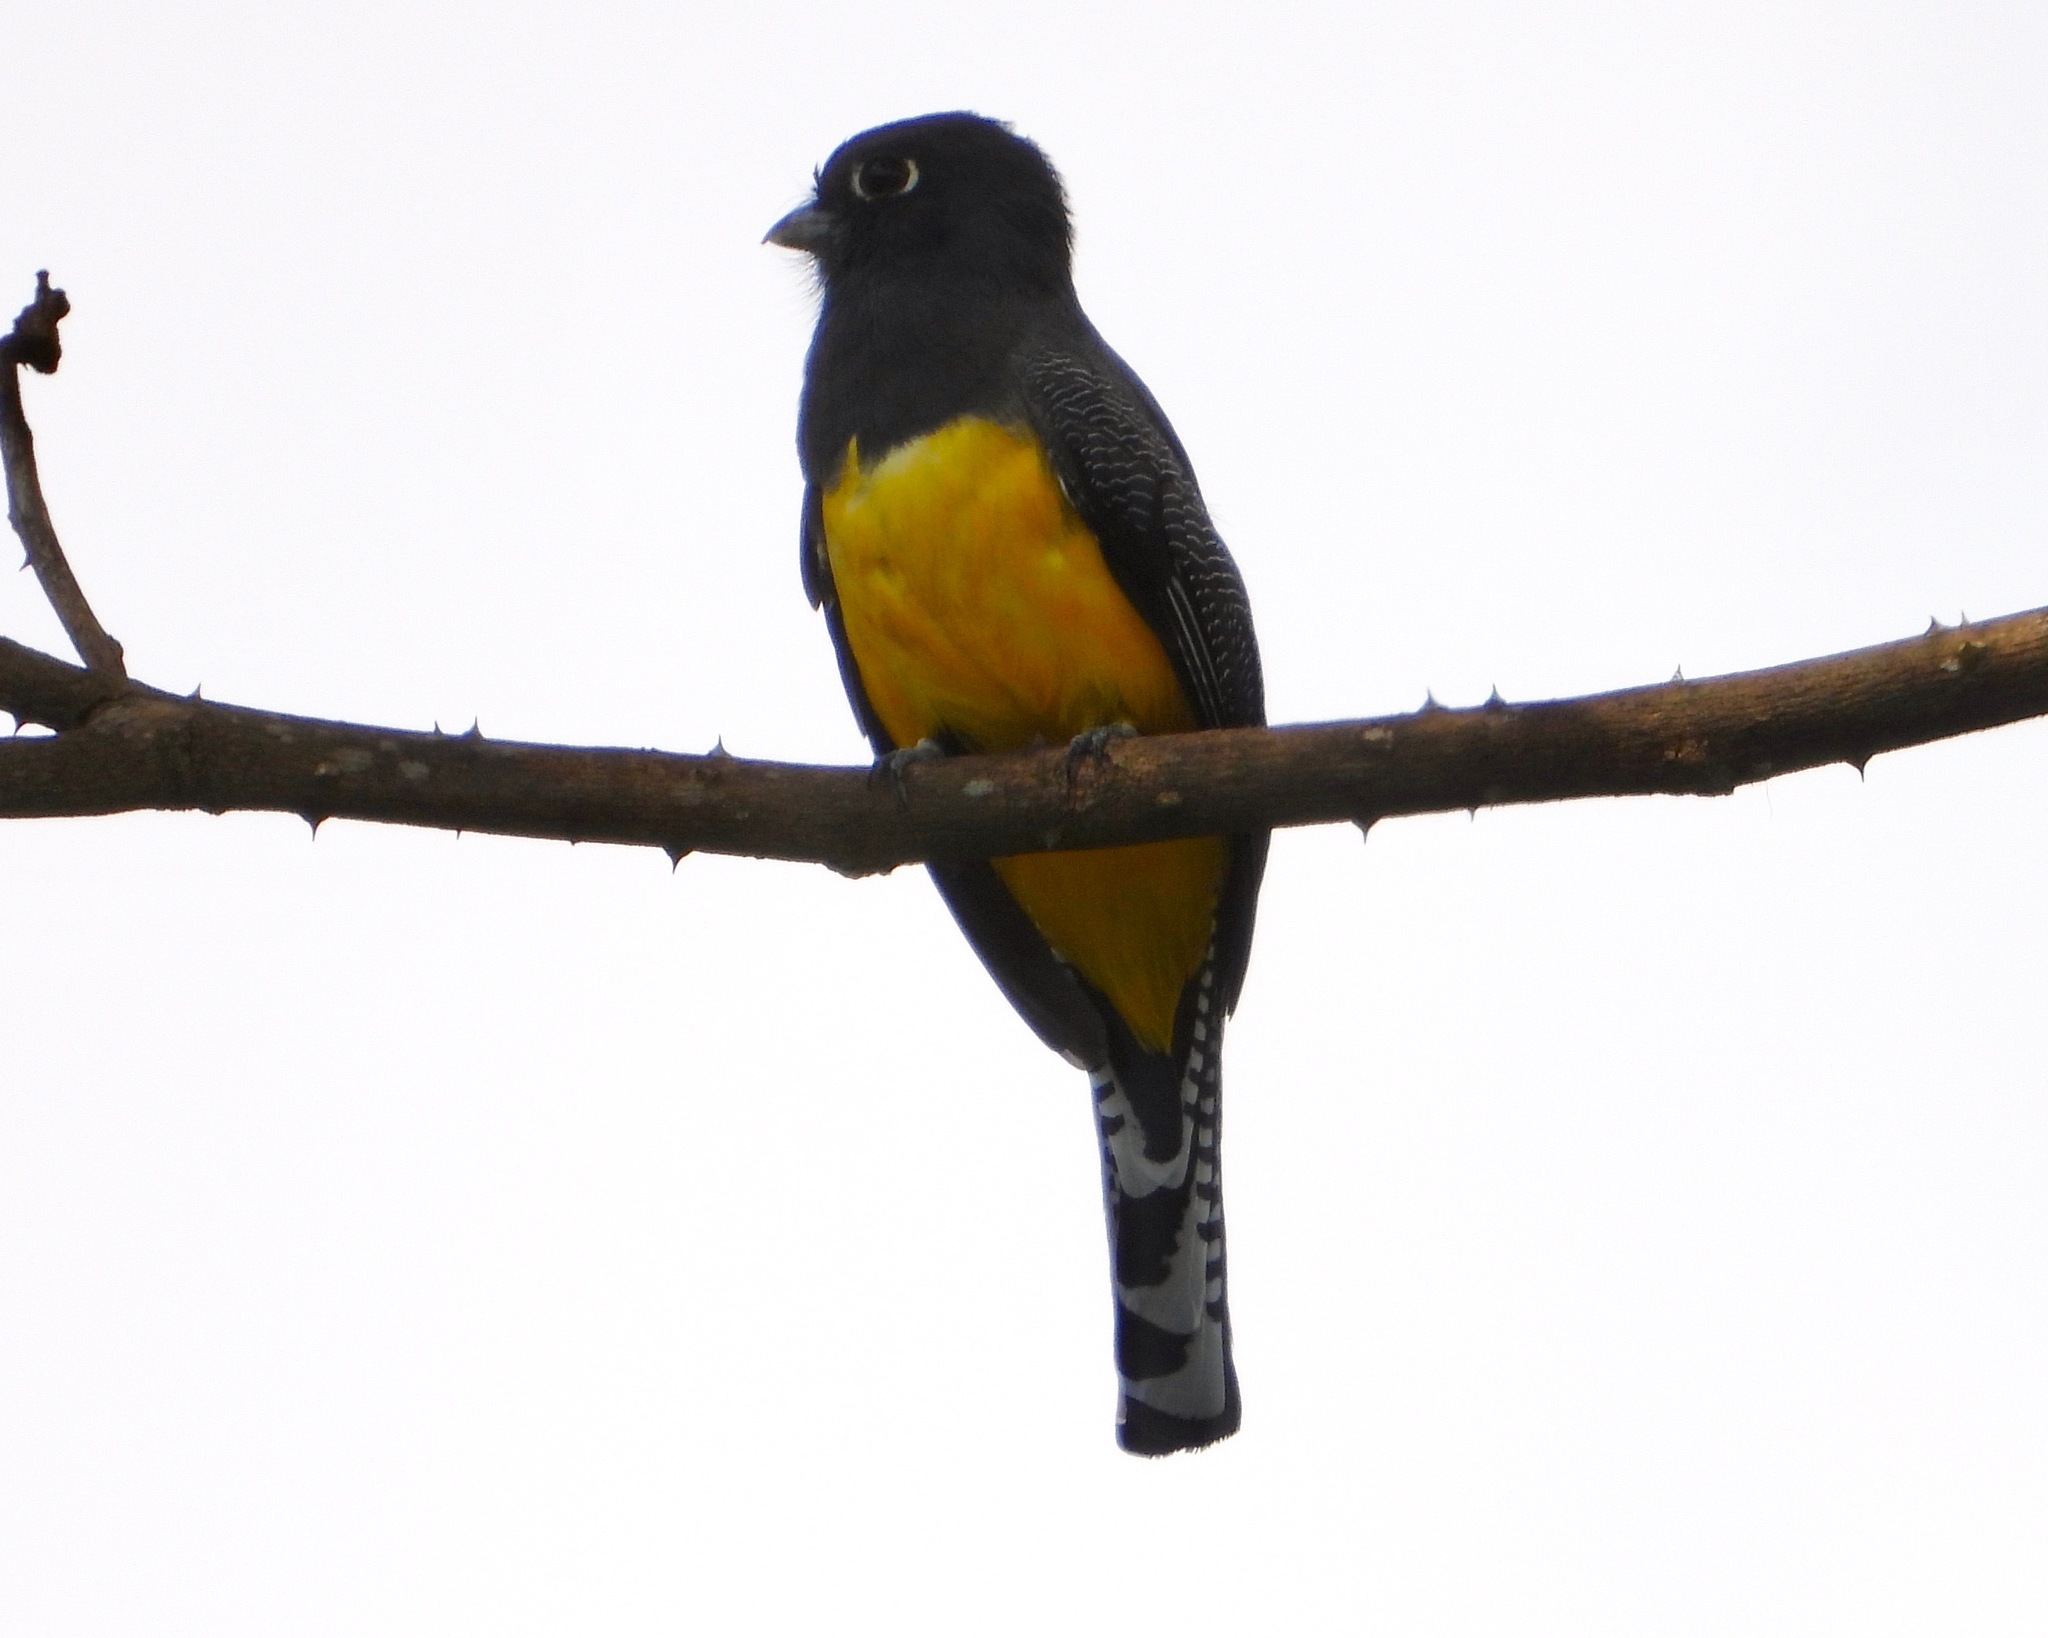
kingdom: Animalia
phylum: Chordata
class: Aves
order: Trogoniformes
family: Trogonidae
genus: Trogon
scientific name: Trogon caligatus
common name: Gartered trogon
